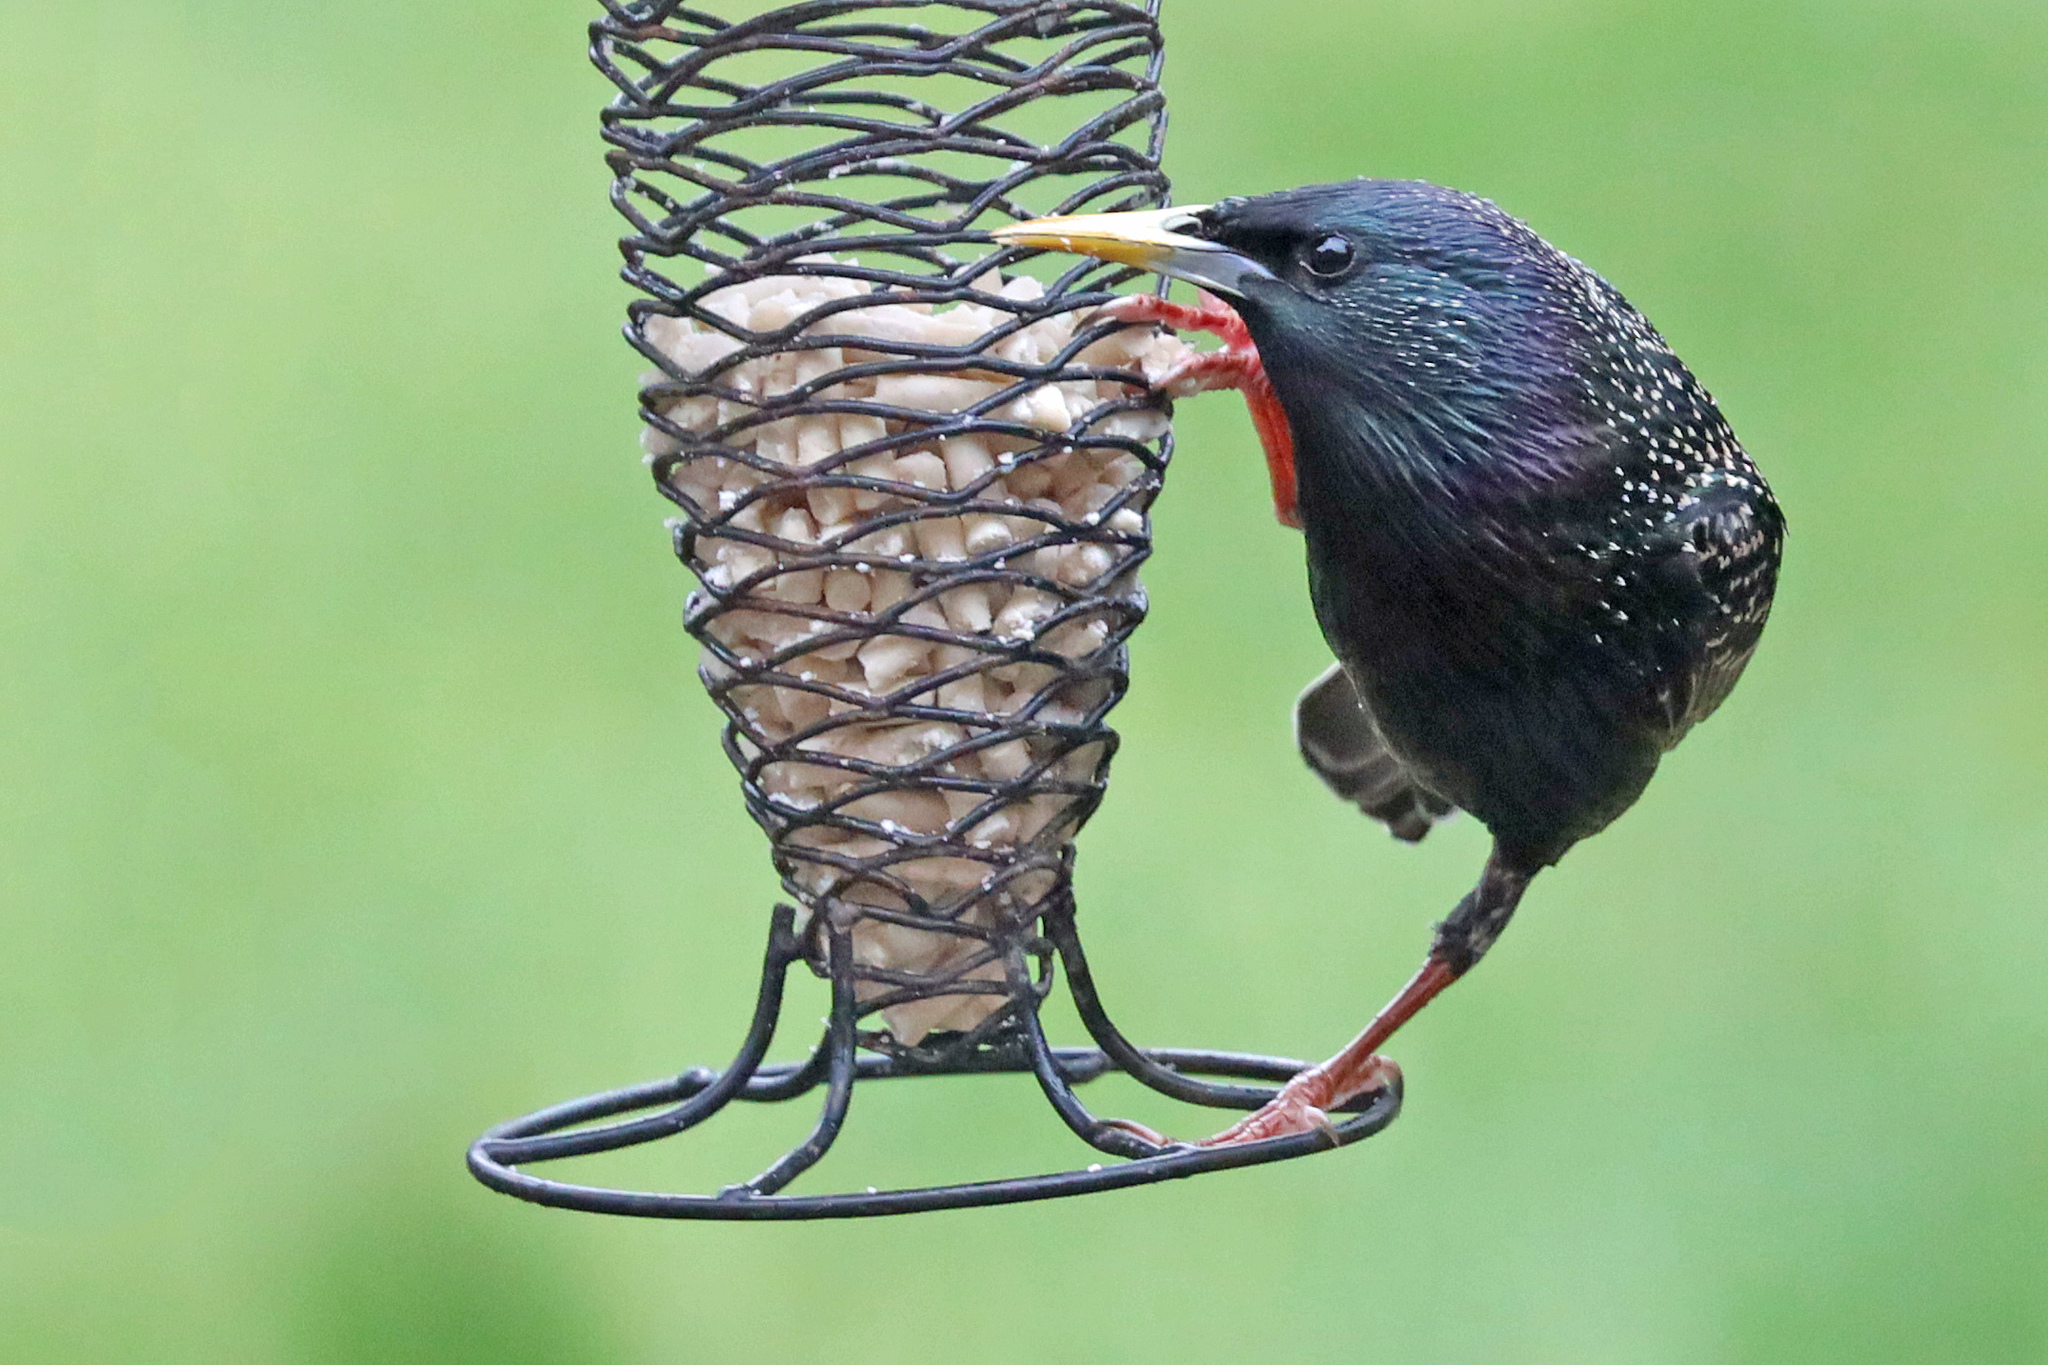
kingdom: Animalia
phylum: Chordata
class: Aves
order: Passeriformes
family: Sturnidae
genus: Sturnus
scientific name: Sturnus vulgaris
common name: Common starling
